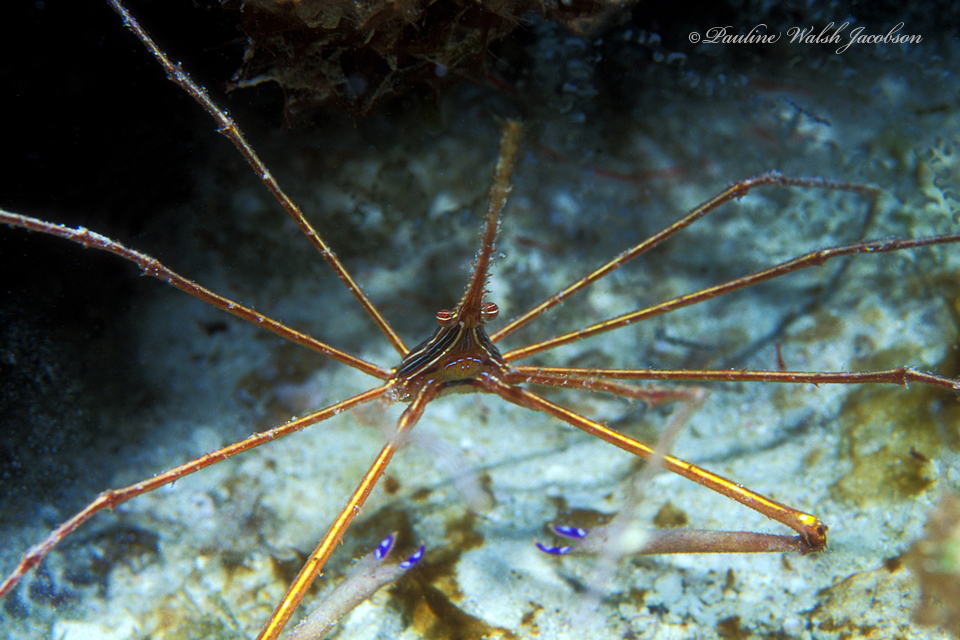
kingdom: Animalia
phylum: Arthropoda
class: Malacostraca
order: Decapoda
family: Inachoididae
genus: Stenorhynchus
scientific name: Stenorhynchus seticornis
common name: Arrow crab
